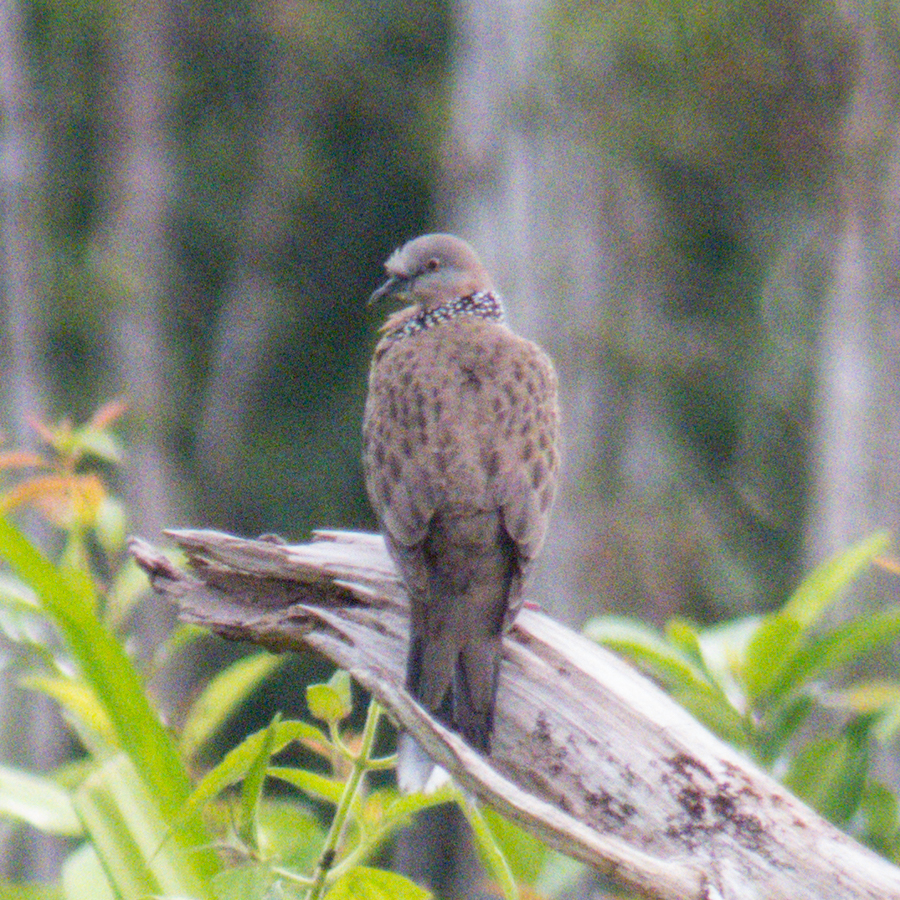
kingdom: Animalia
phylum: Chordata
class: Aves
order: Columbiformes
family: Columbidae
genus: Spilopelia
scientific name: Spilopelia chinensis
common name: Spotted dove
